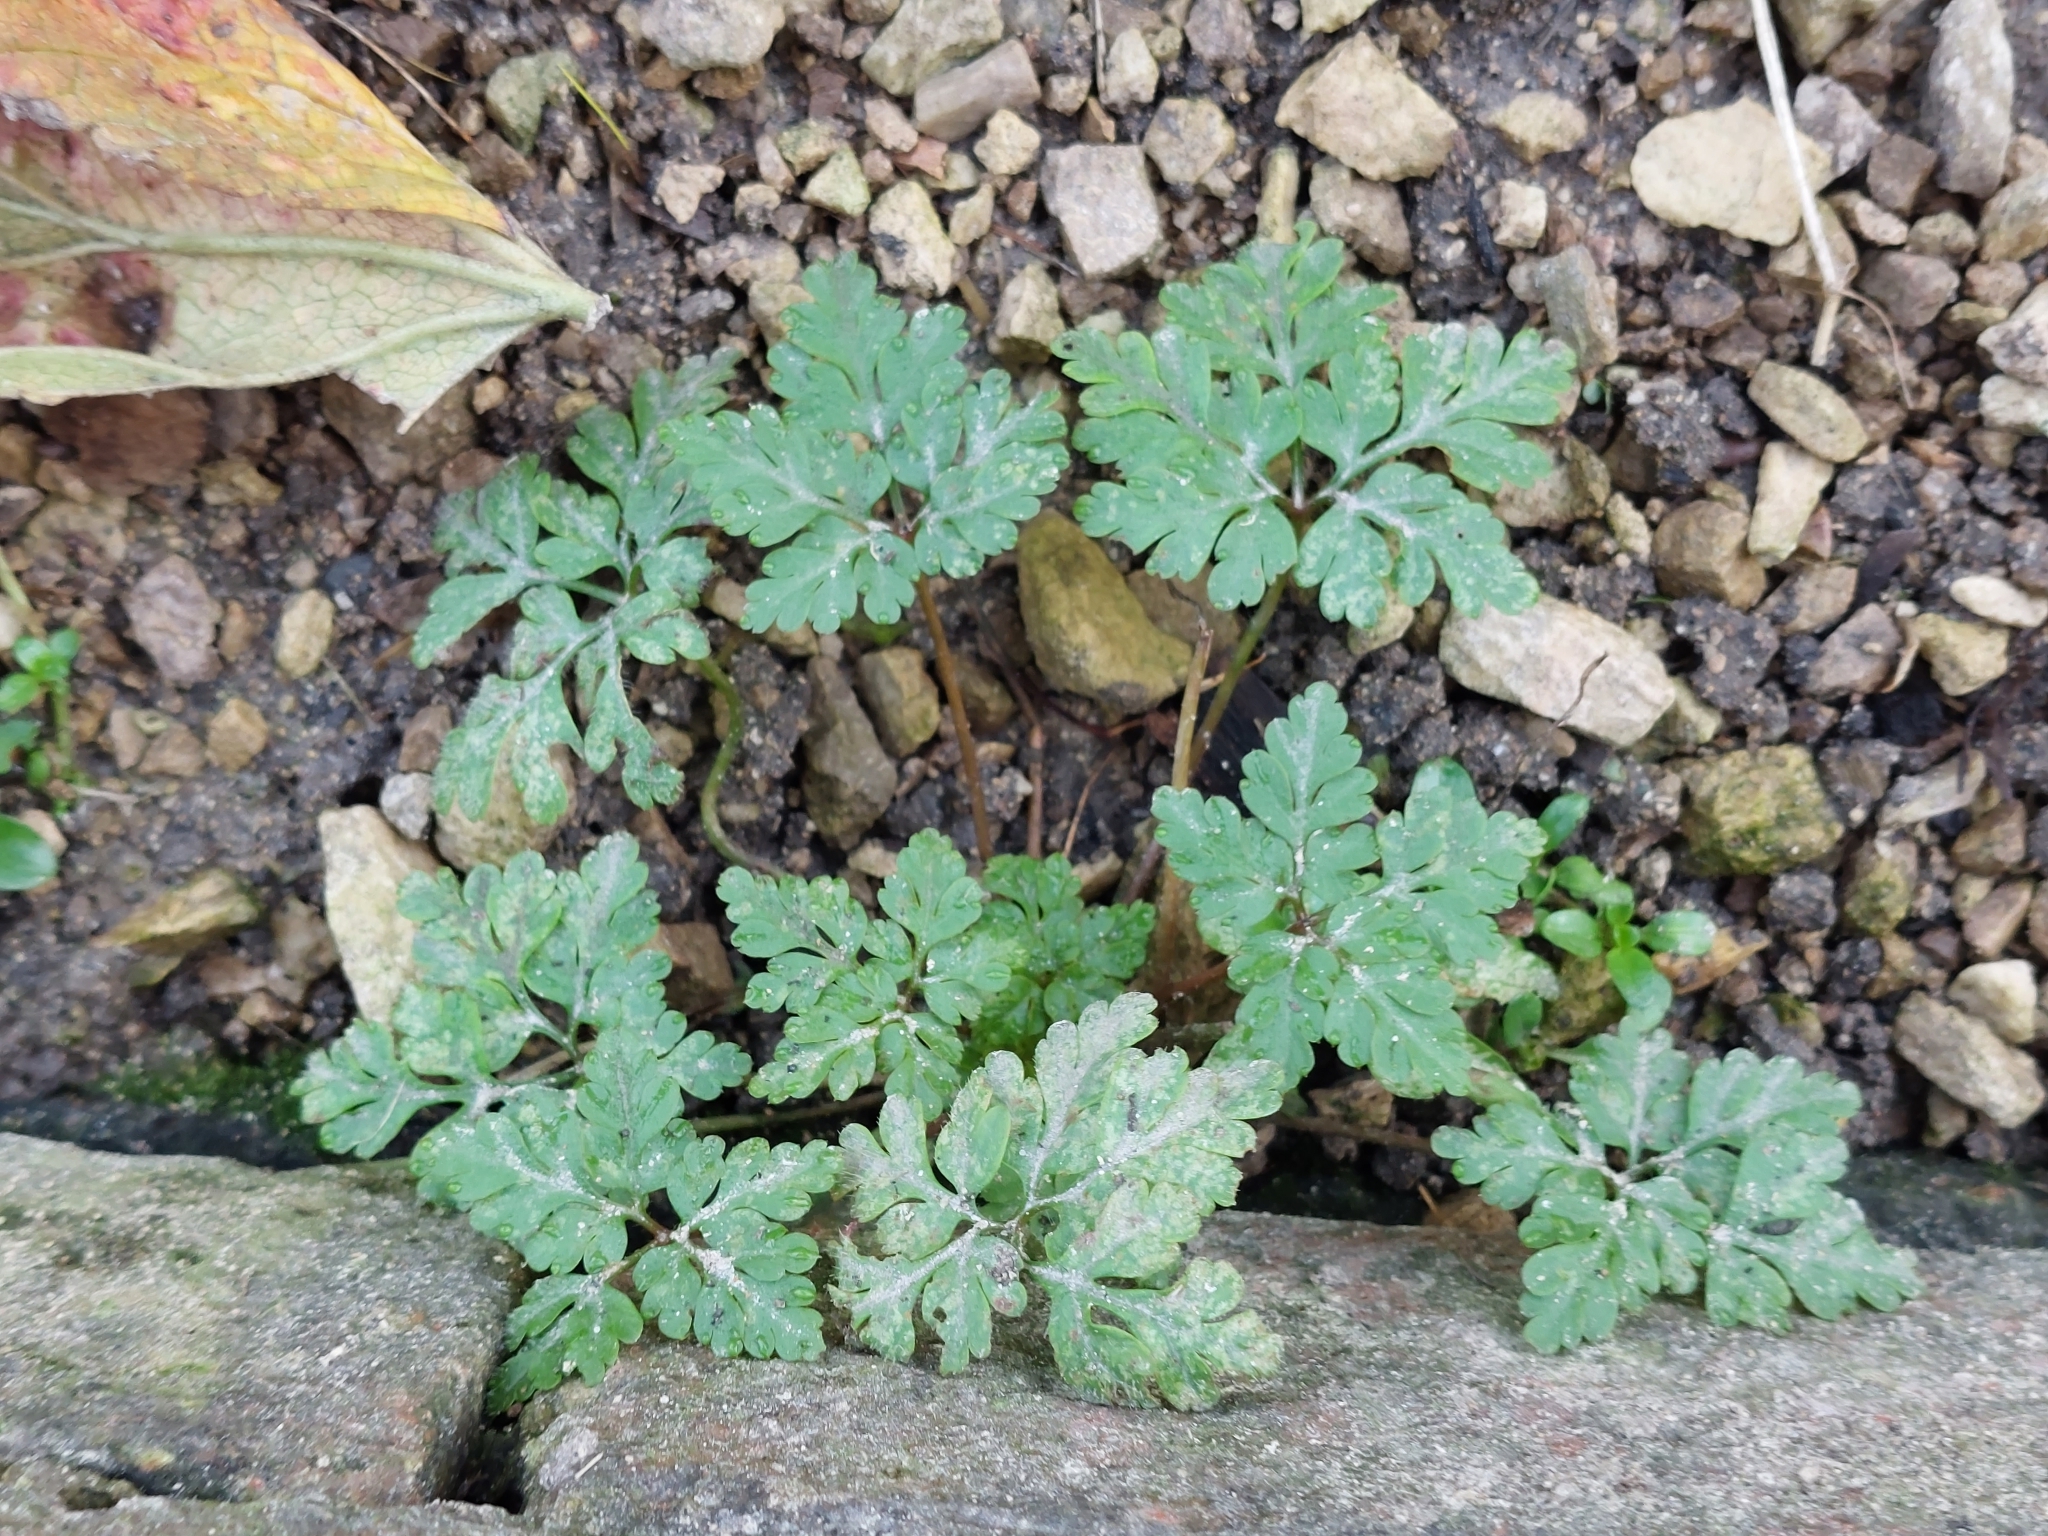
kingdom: Plantae
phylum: Tracheophyta
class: Magnoliopsida
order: Geraniales
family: Geraniaceae
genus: Geranium
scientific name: Geranium robertianum
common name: Herb-robert
